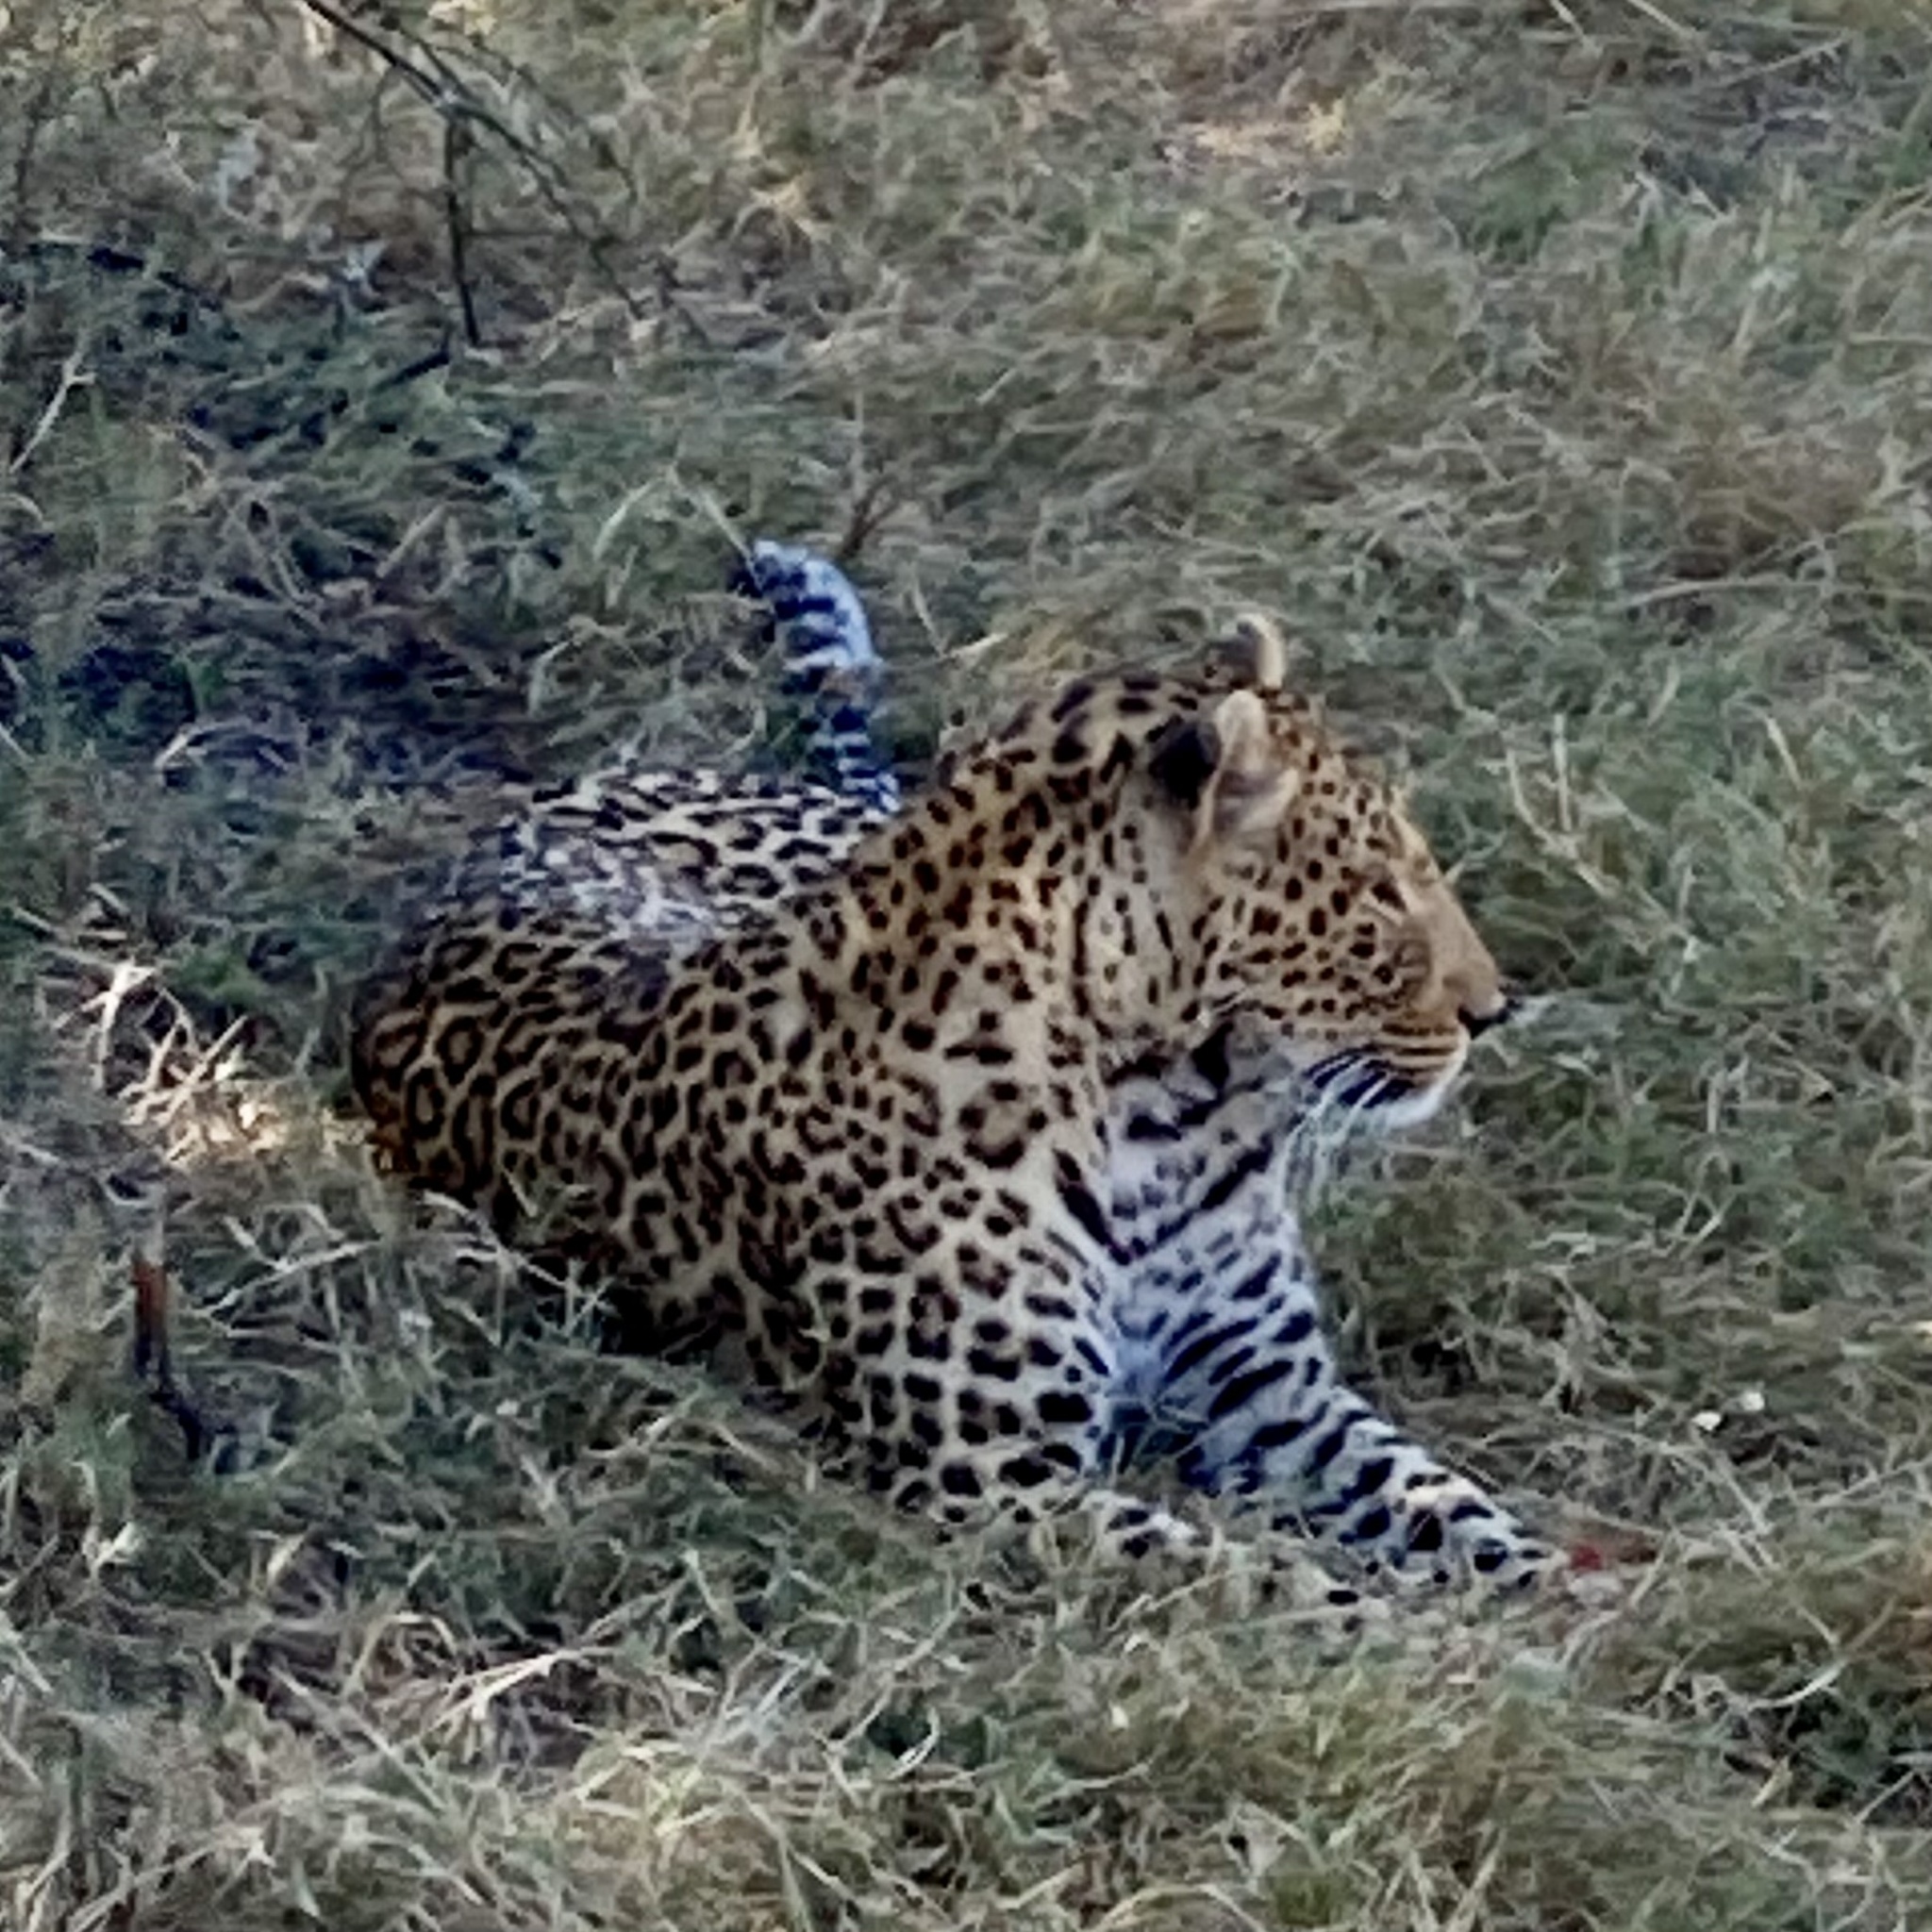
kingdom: Animalia
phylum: Chordata
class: Mammalia
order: Carnivora
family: Felidae
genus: Panthera
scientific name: Panthera pardus
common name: Leopard
